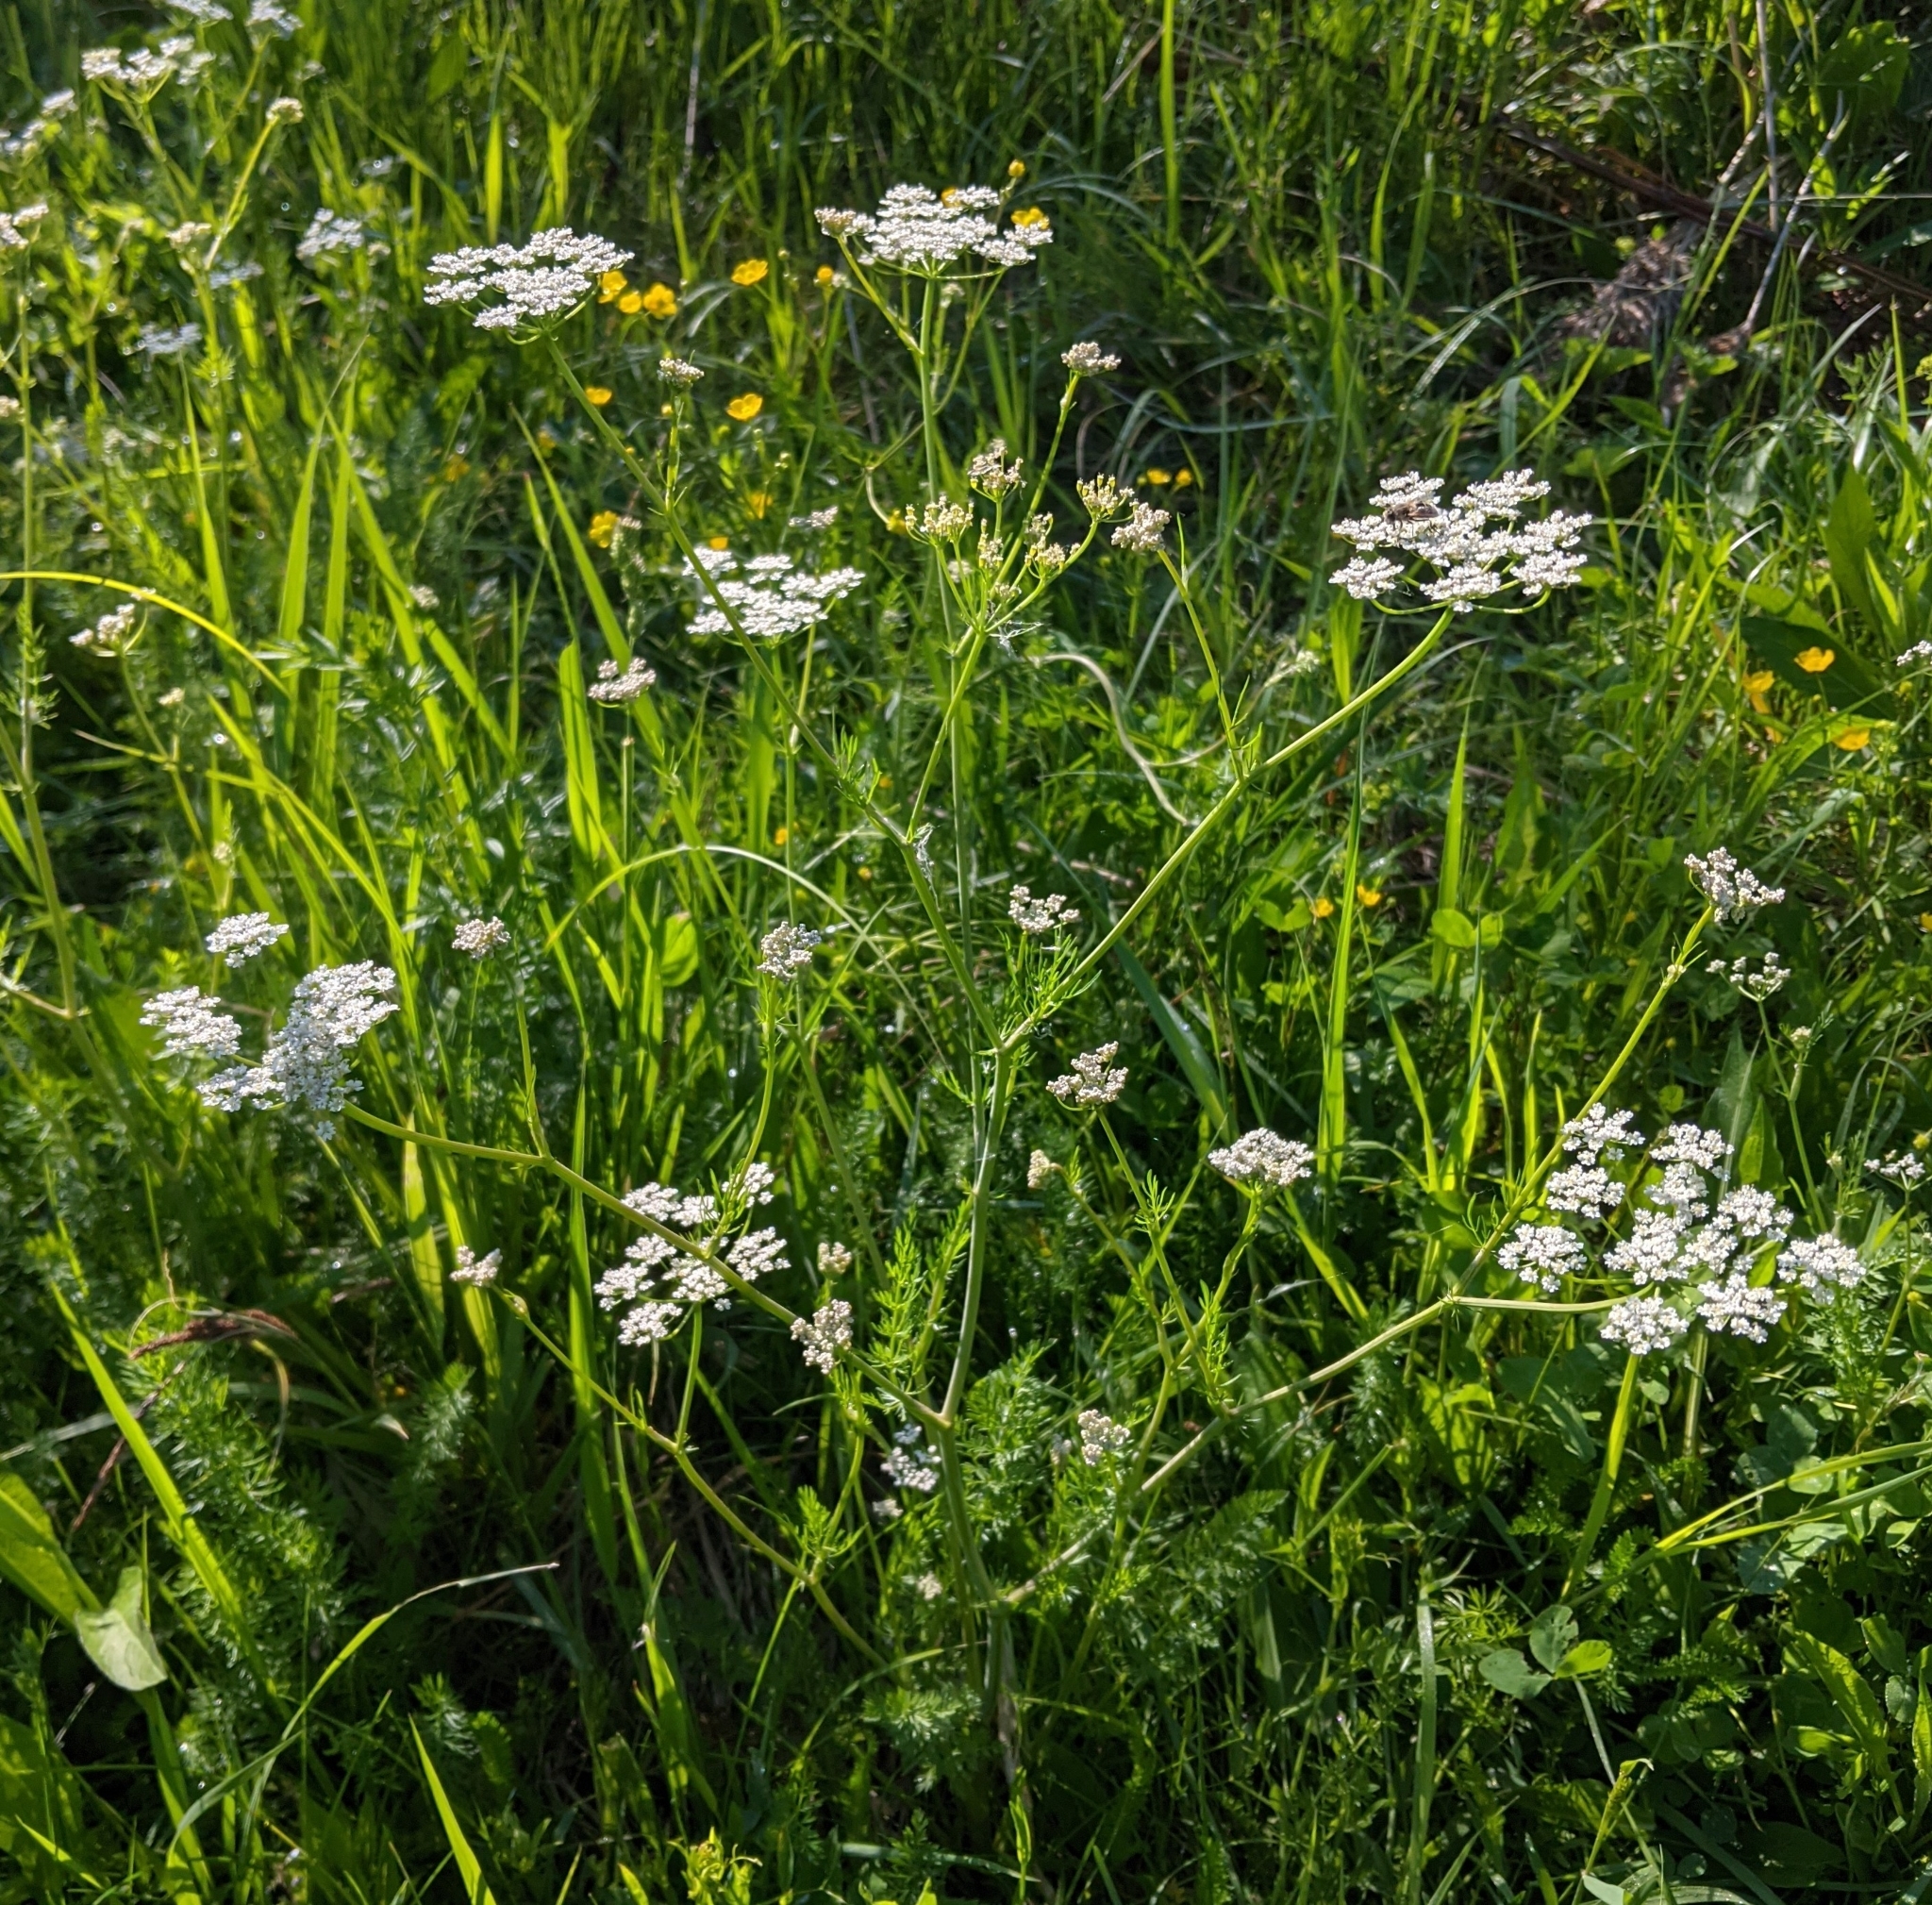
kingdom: Plantae
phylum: Tracheophyta
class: Magnoliopsida
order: Apiales
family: Apiaceae
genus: Carum
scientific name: Carum carvi
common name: Caraway
